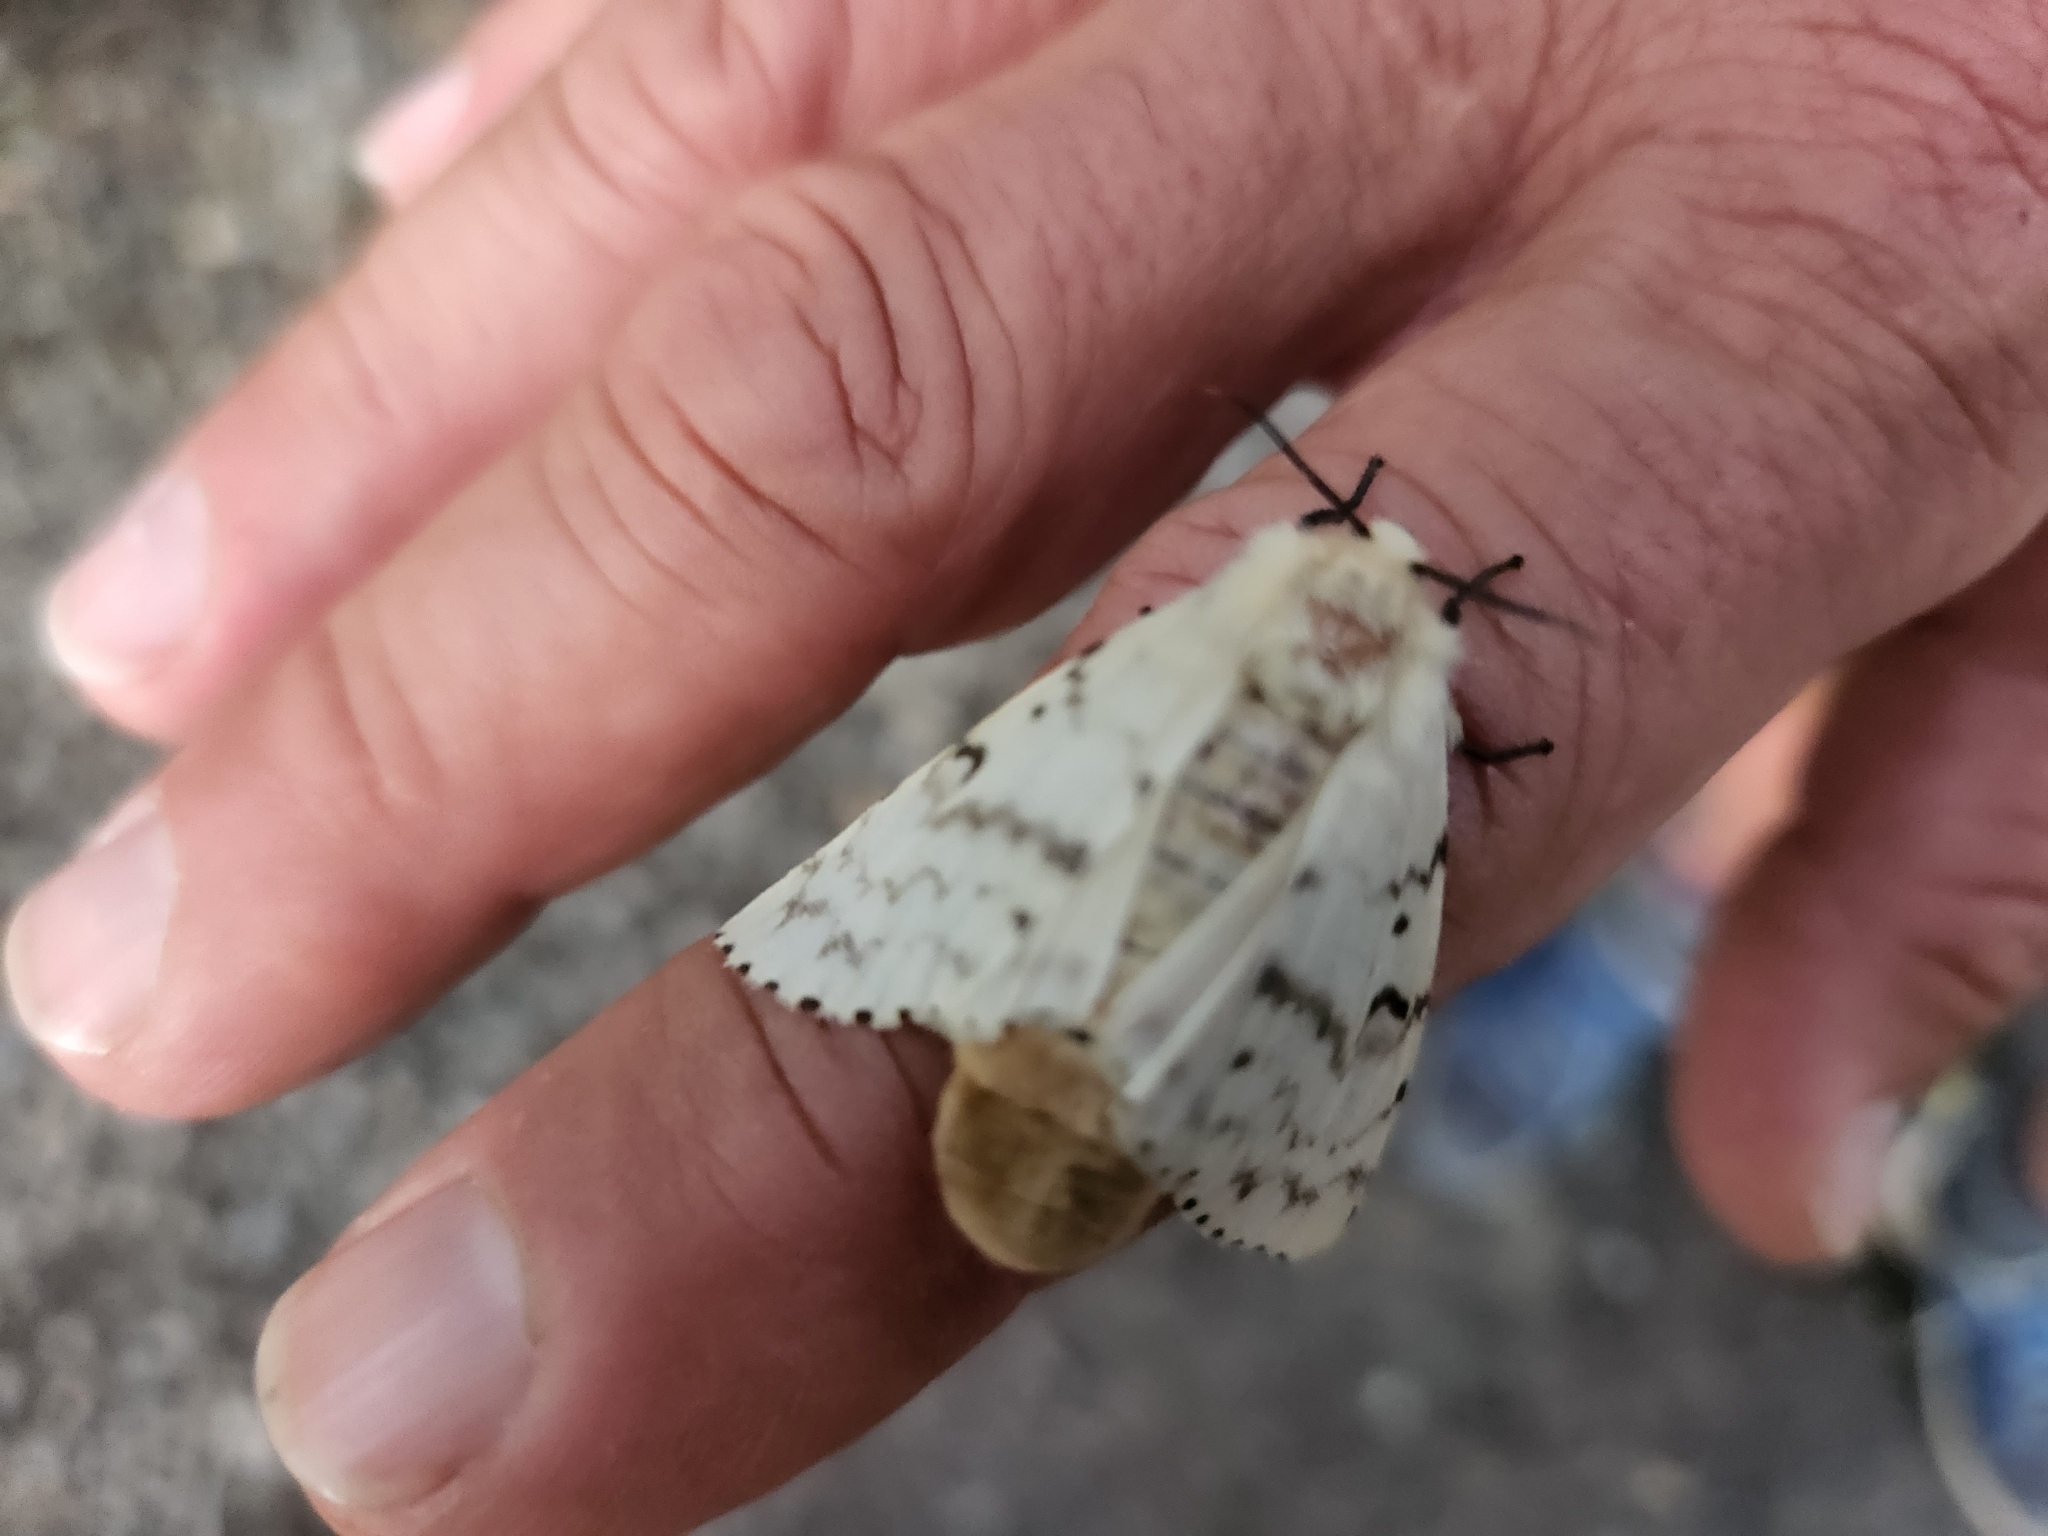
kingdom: Animalia
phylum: Arthropoda
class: Insecta
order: Lepidoptera
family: Erebidae
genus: Lymantria
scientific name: Lymantria dispar
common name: Gypsy moth
